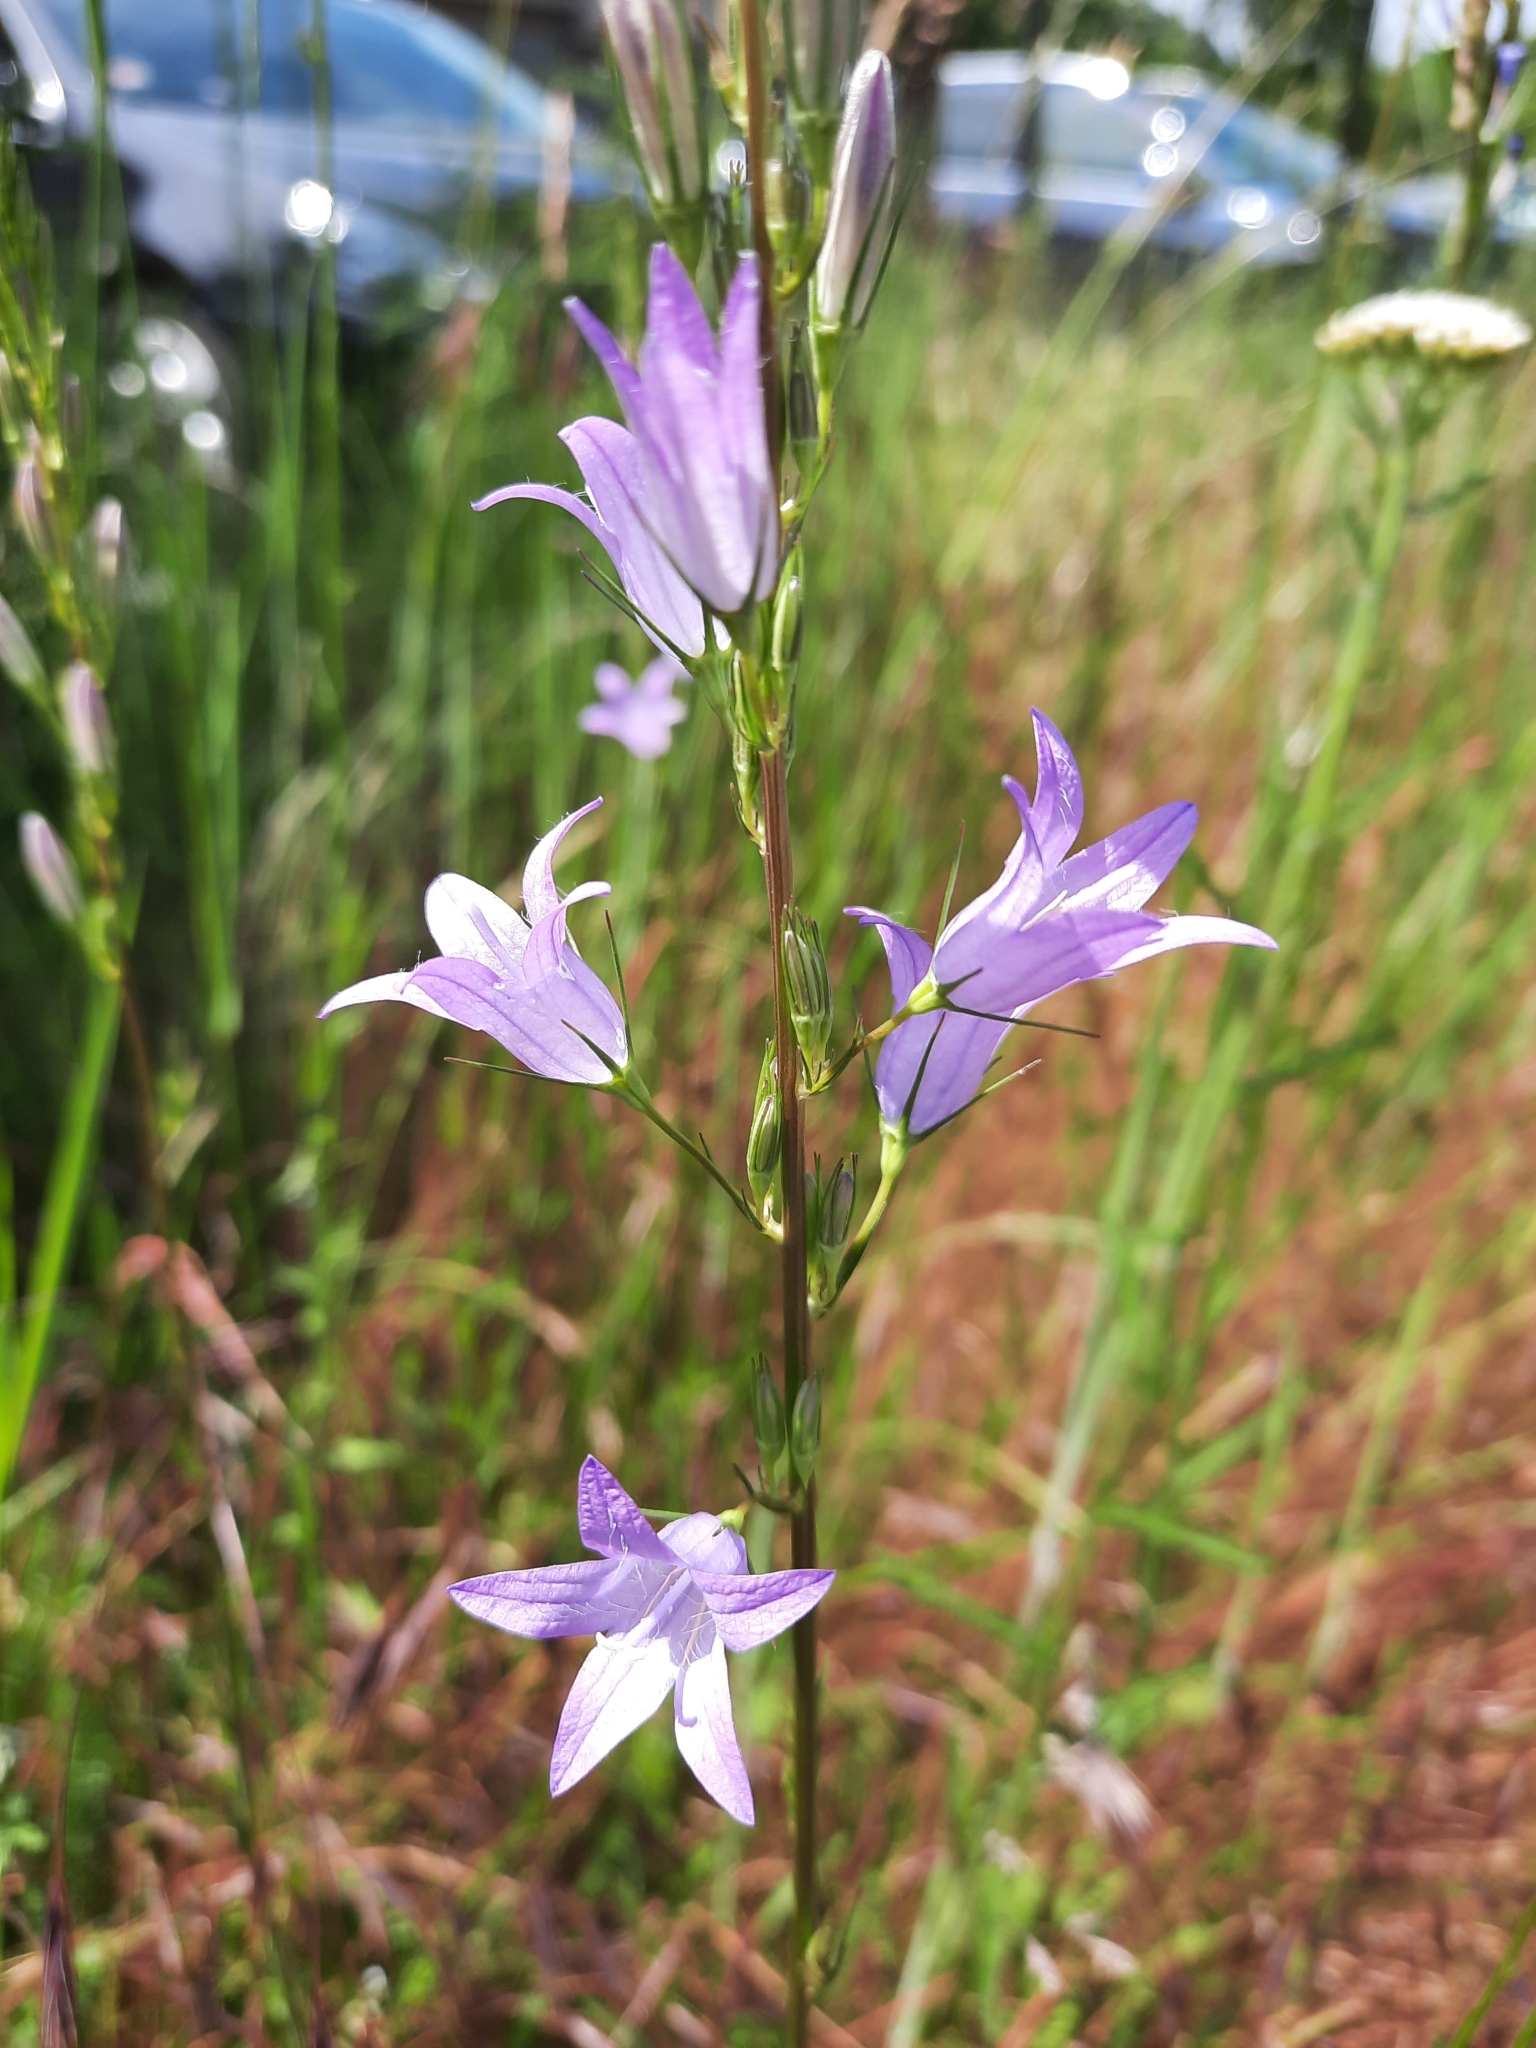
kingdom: Plantae
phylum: Tracheophyta
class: Magnoliopsida
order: Asterales
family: Campanulaceae
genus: Campanula
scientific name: Campanula rapunculus
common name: Rampion bellflower
